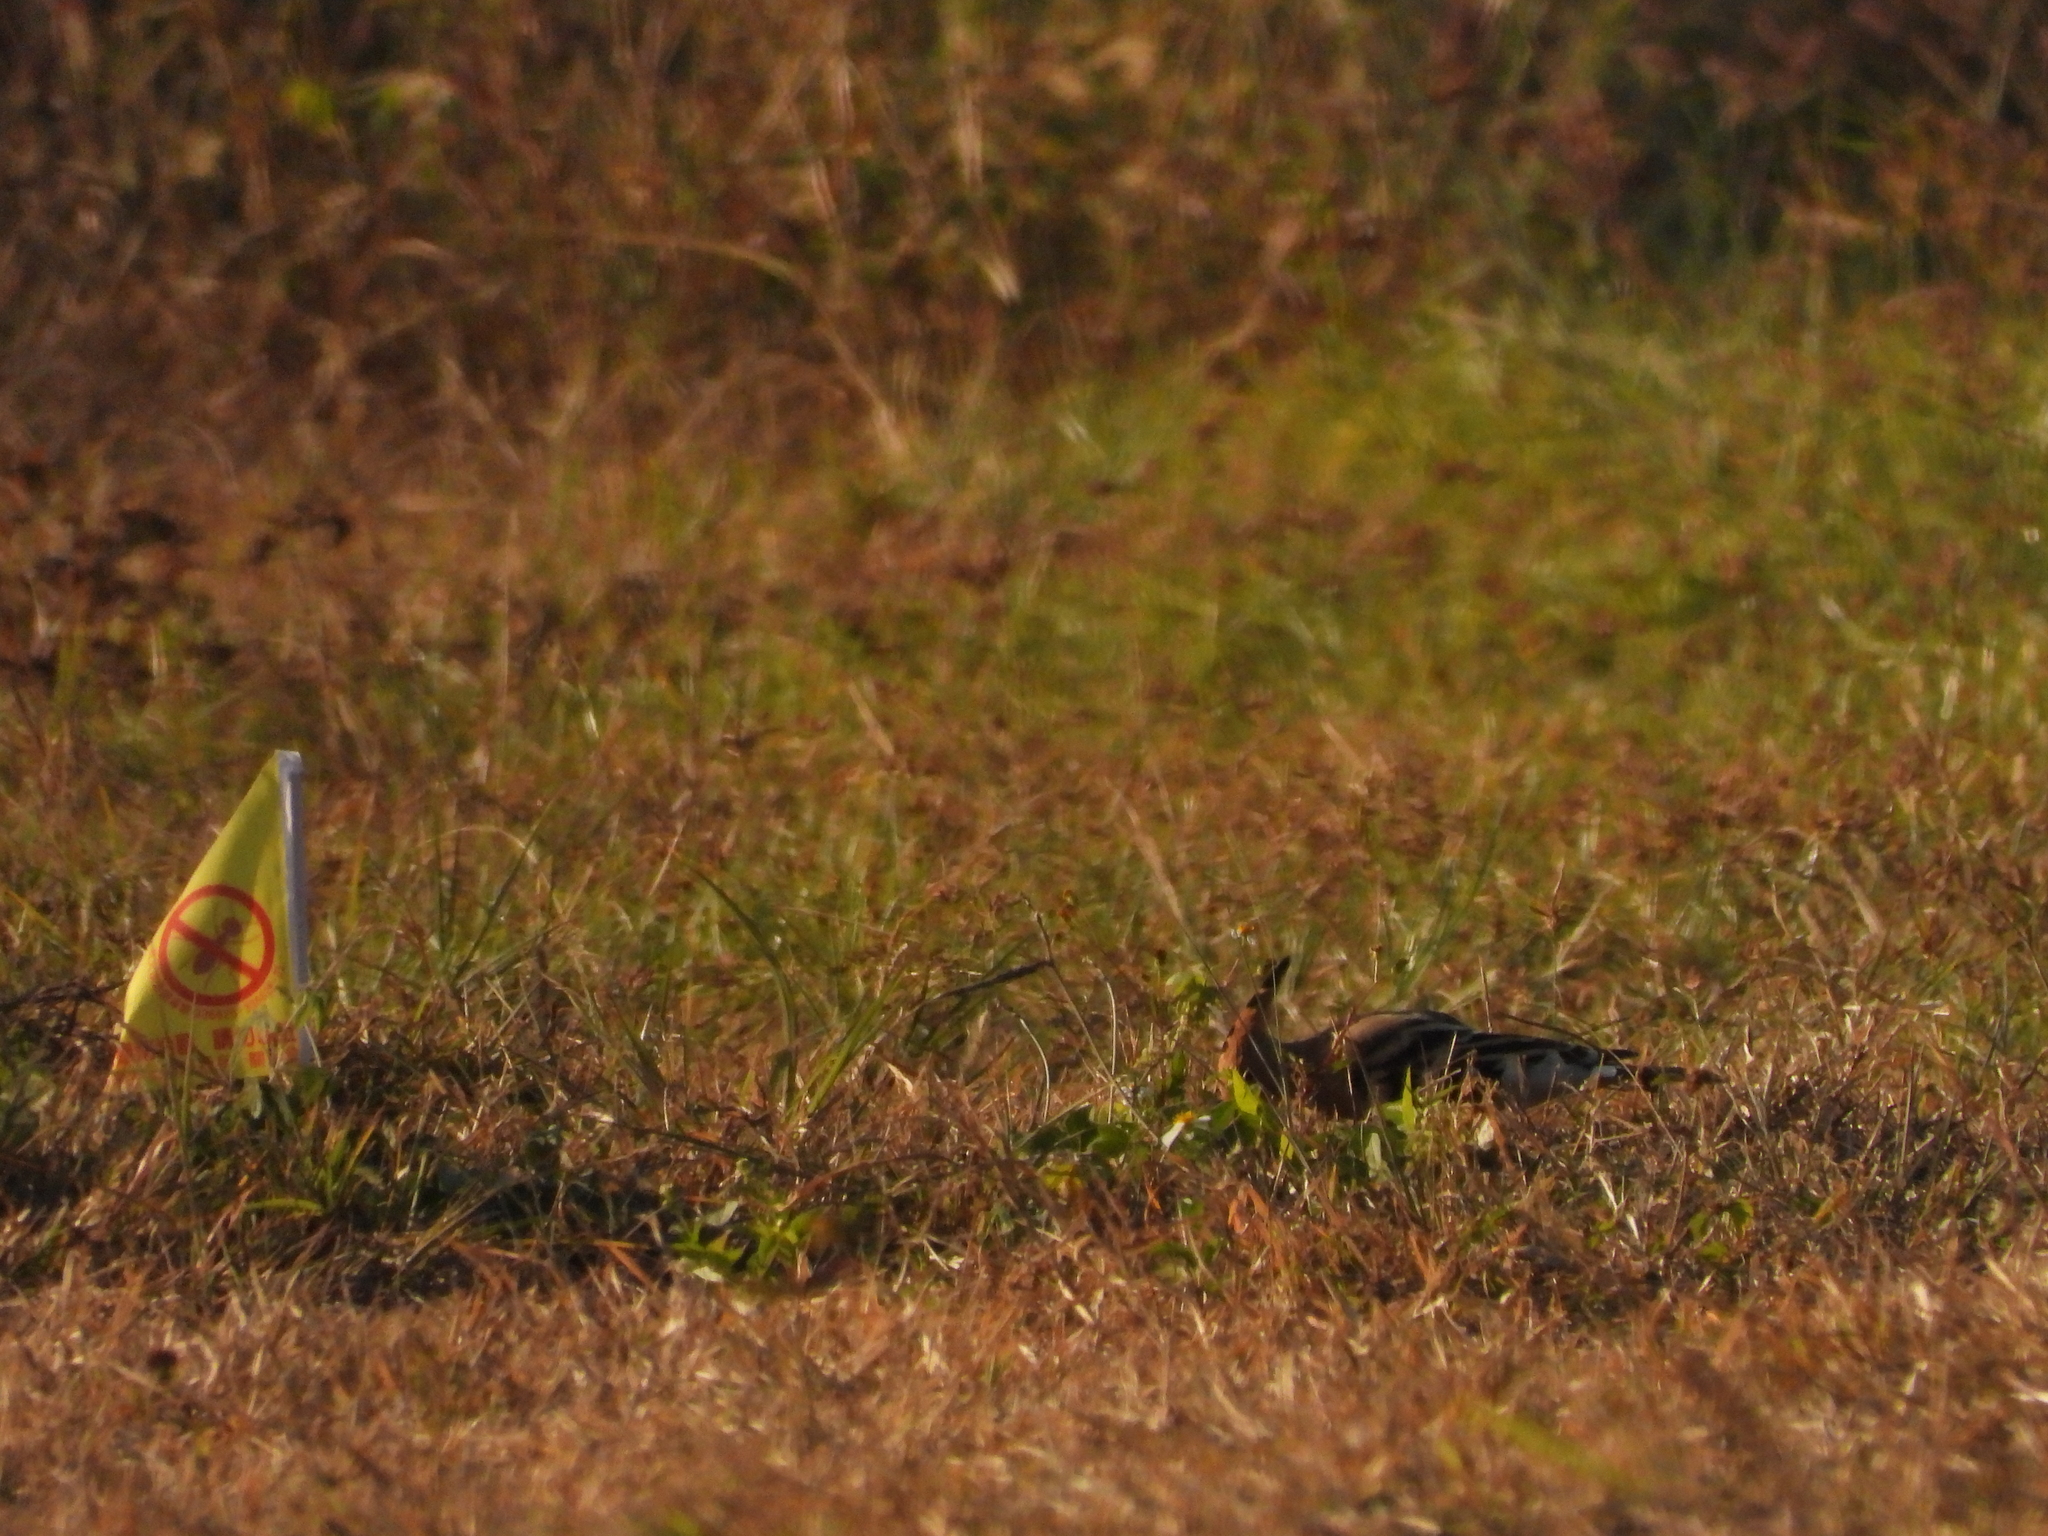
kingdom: Animalia
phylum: Chordata
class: Aves
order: Bucerotiformes
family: Upupidae
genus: Upupa
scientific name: Upupa epops
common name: Eurasian hoopoe
